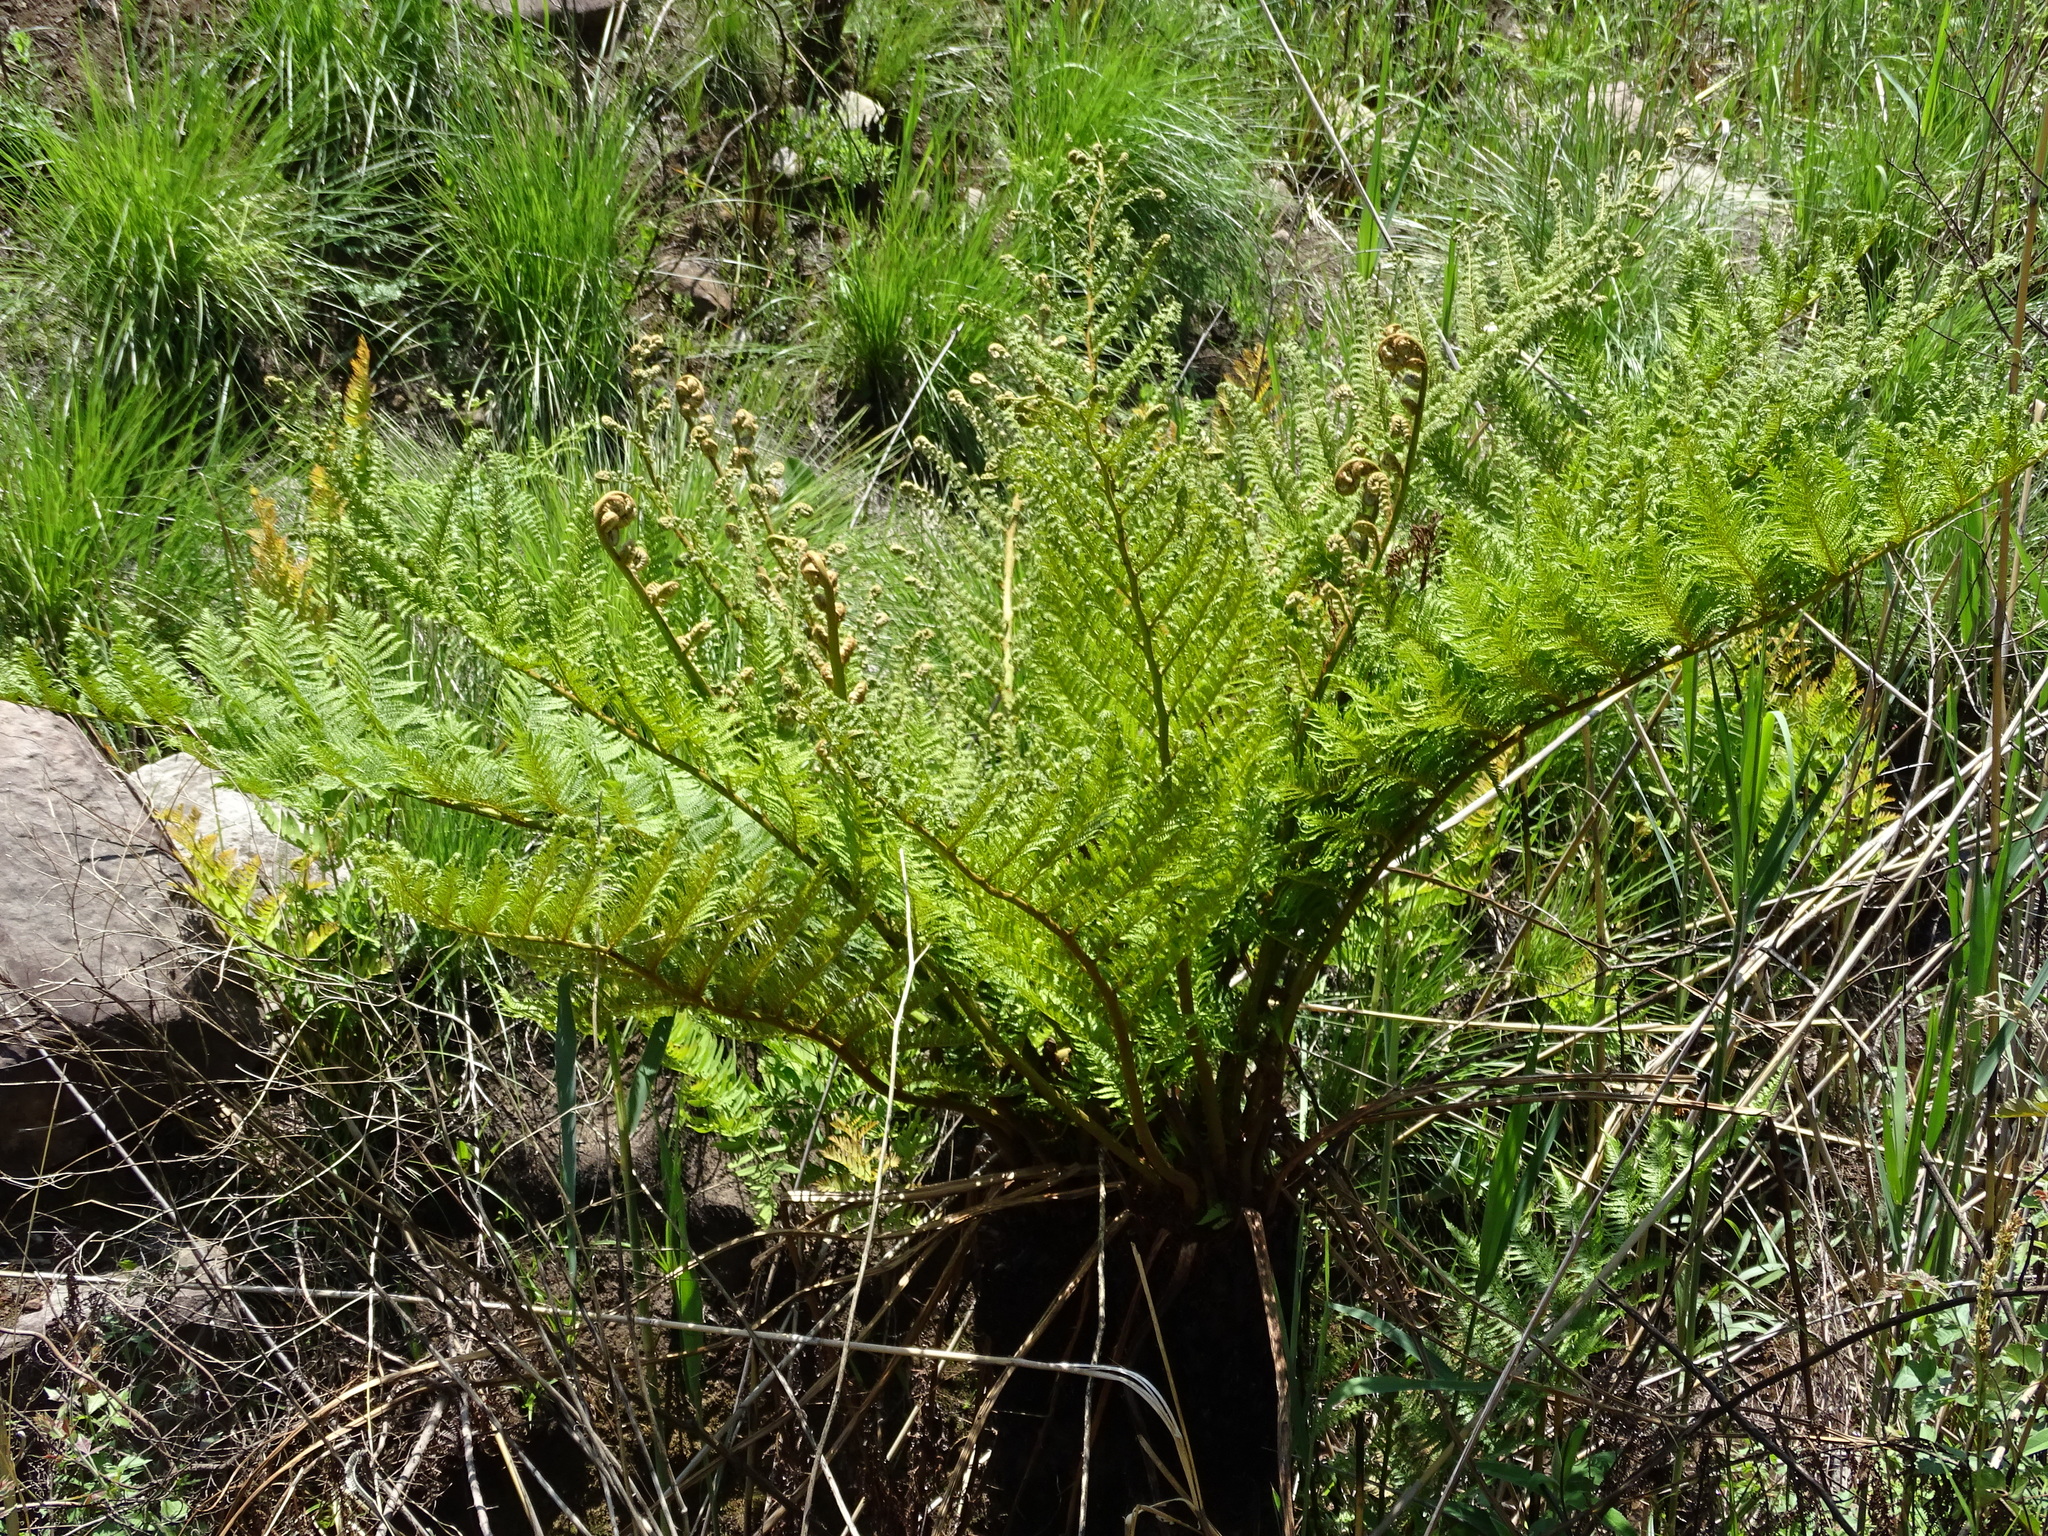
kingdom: Plantae
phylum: Tracheophyta
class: Polypodiopsida
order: Cyatheales
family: Cyatheaceae
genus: Alsophila
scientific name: Alsophila dregei
